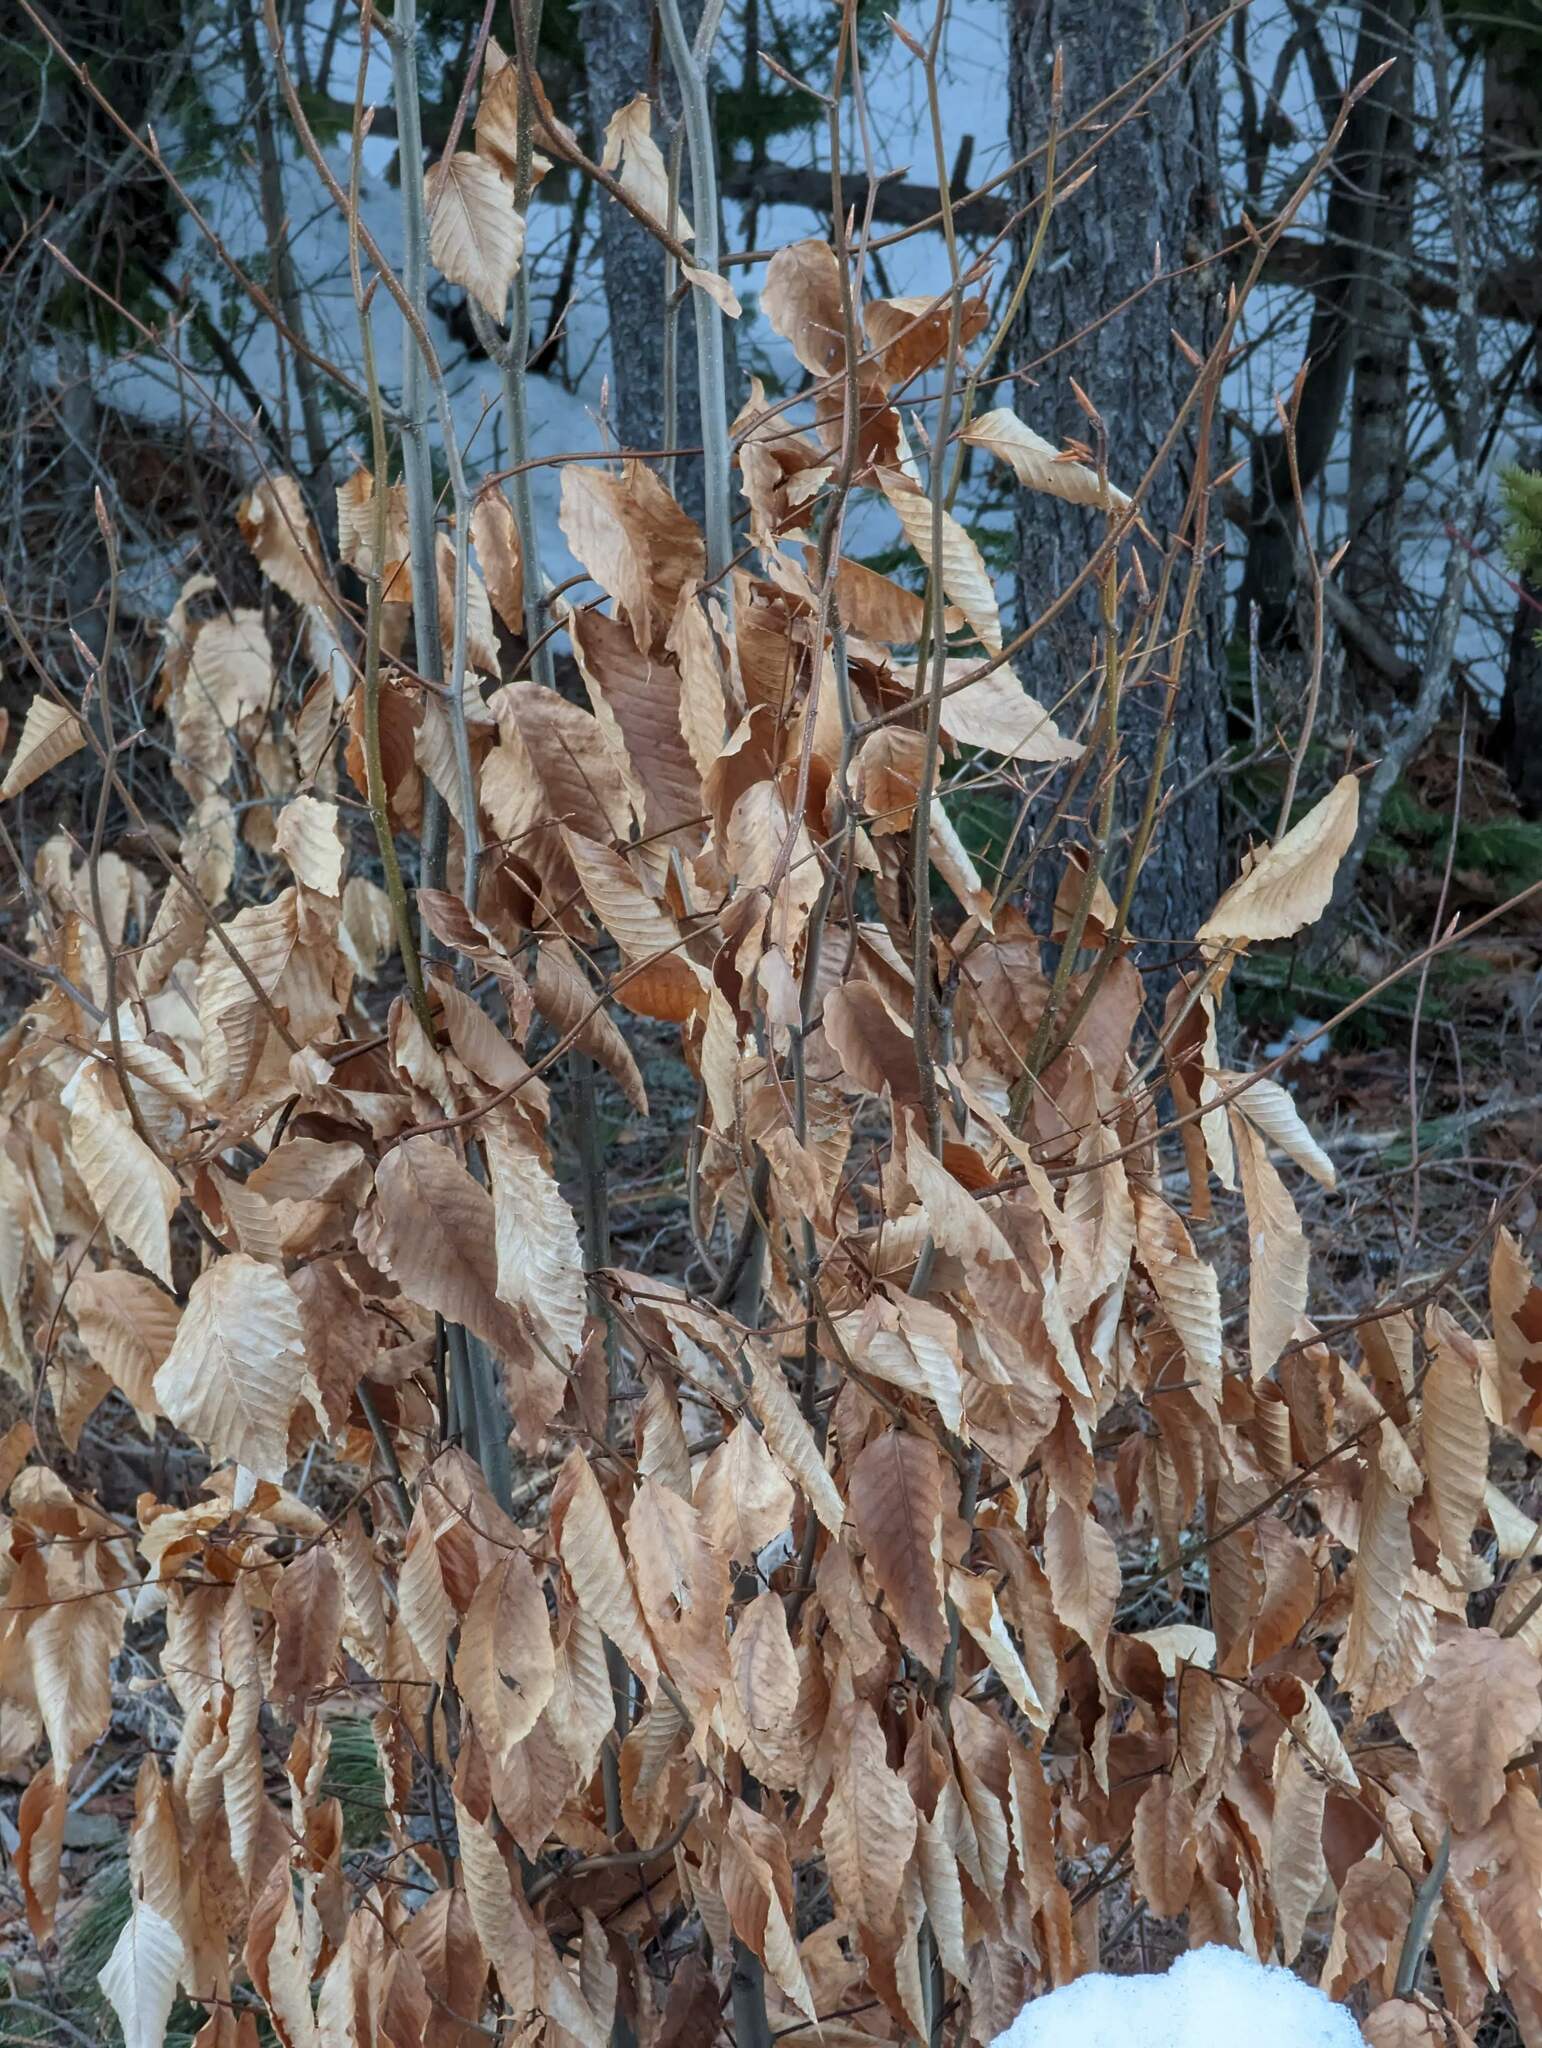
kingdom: Plantae
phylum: Tracheophyta
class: Magnoliopsida
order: Fagales
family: Fagaceae
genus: Fagus
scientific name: Fagus grandifolia
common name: American beech
